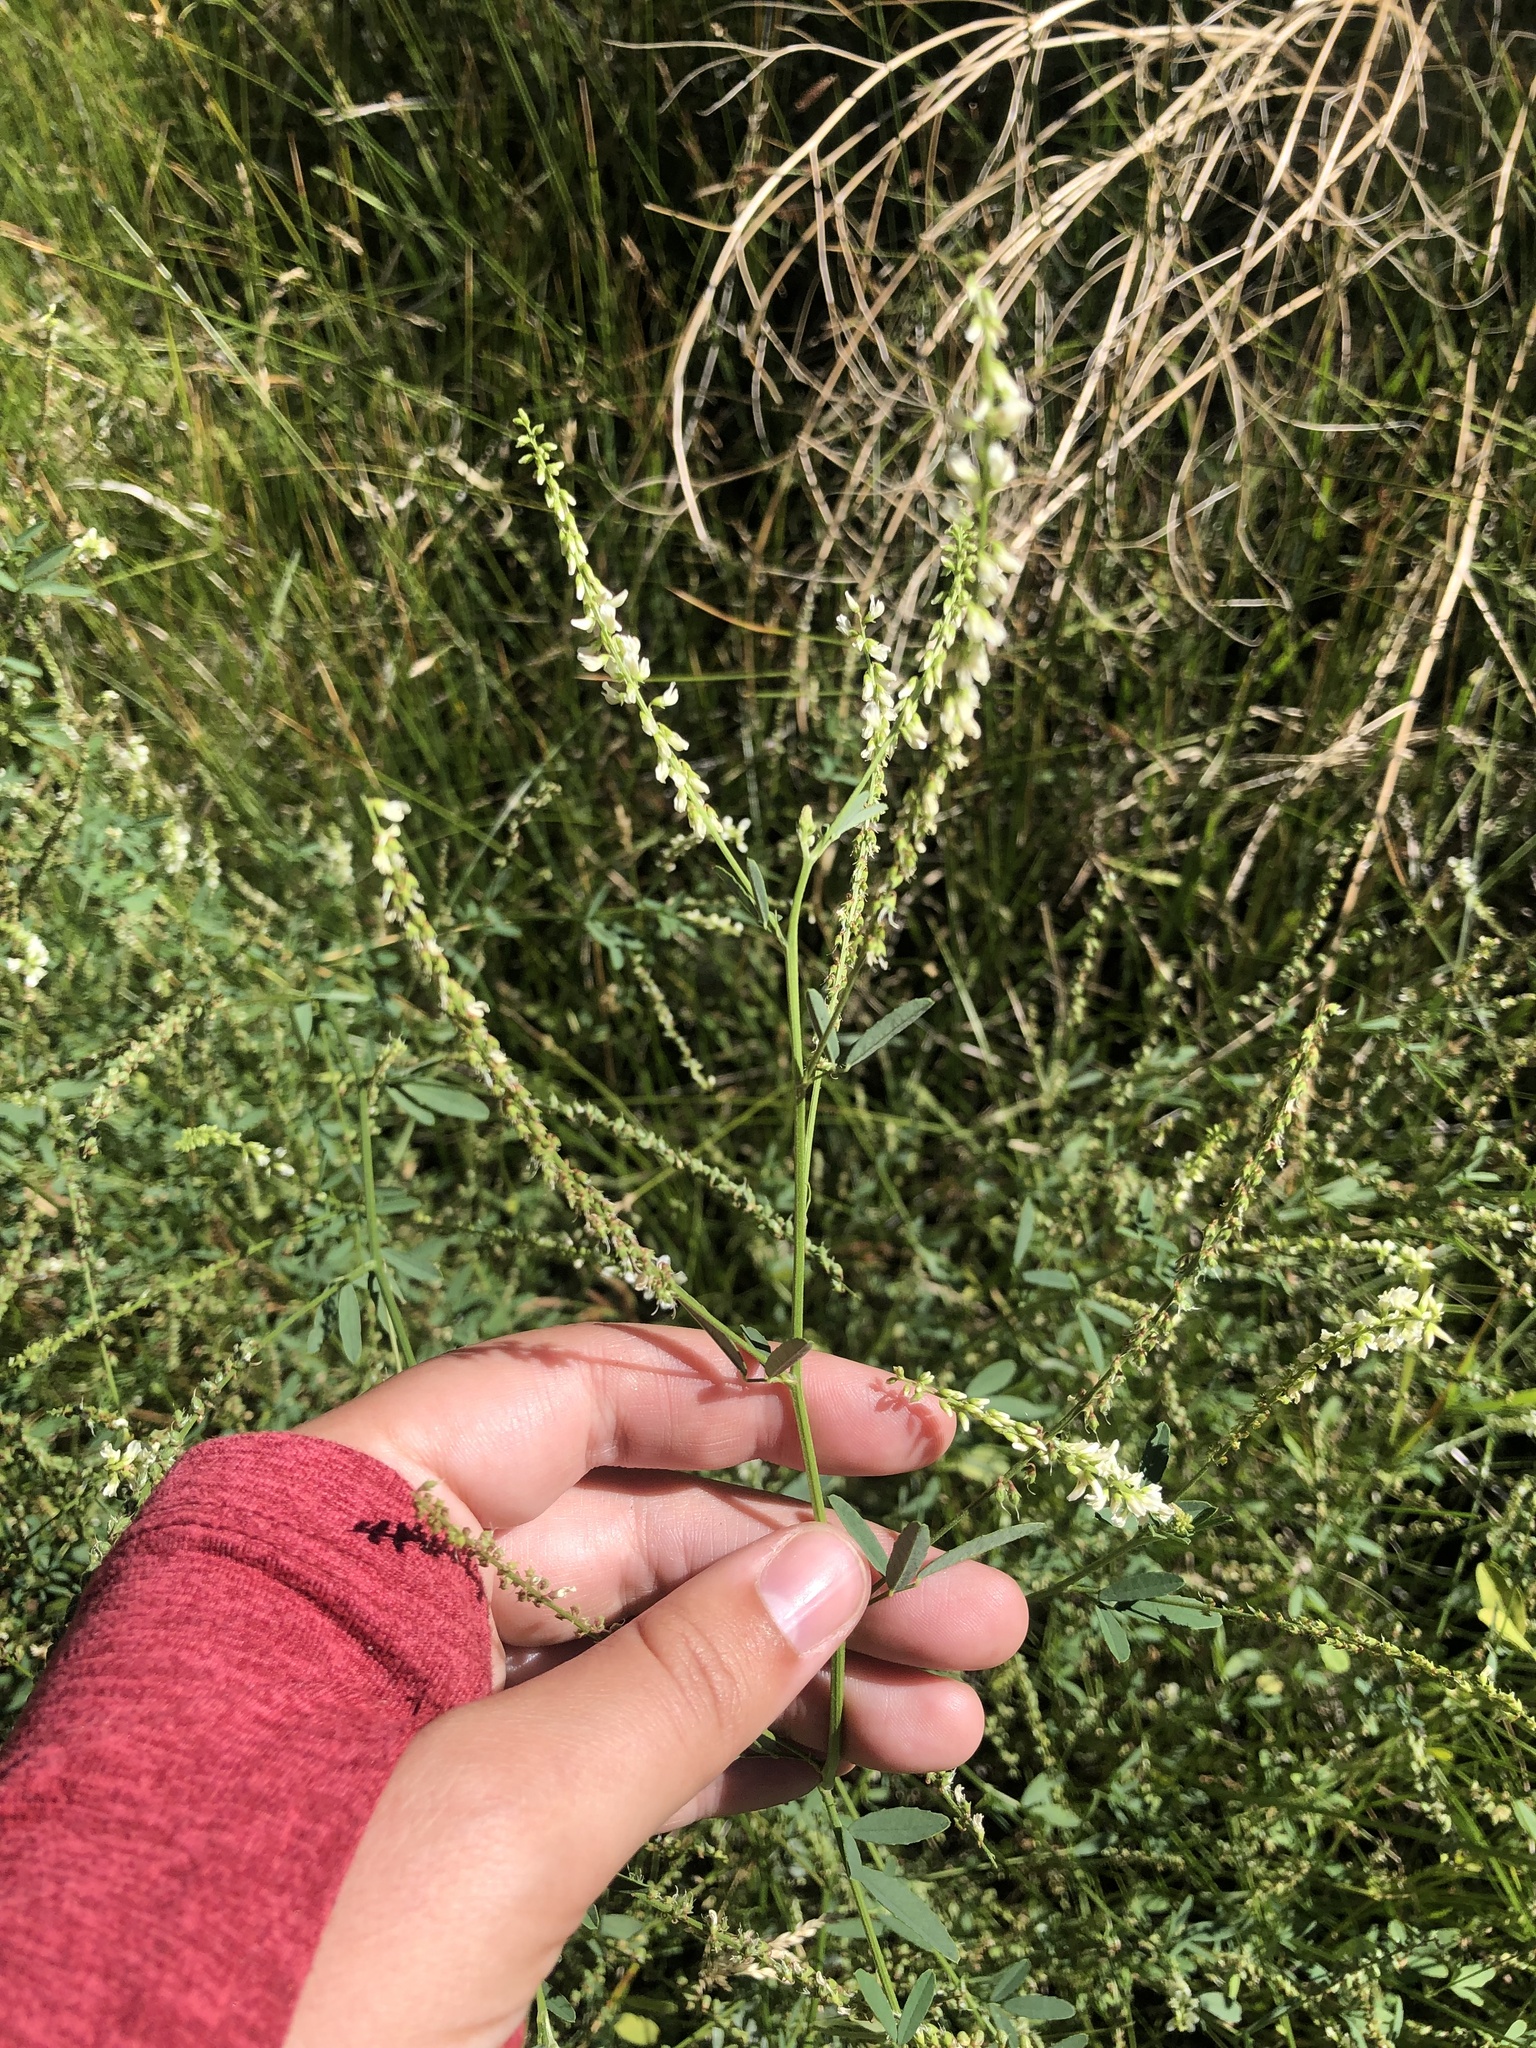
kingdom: Plantae
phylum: Tracheophyta
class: Magnoliopsida
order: Fabales
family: Fabaceae
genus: Melilotus
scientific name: Melilotus albus
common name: White melilot
